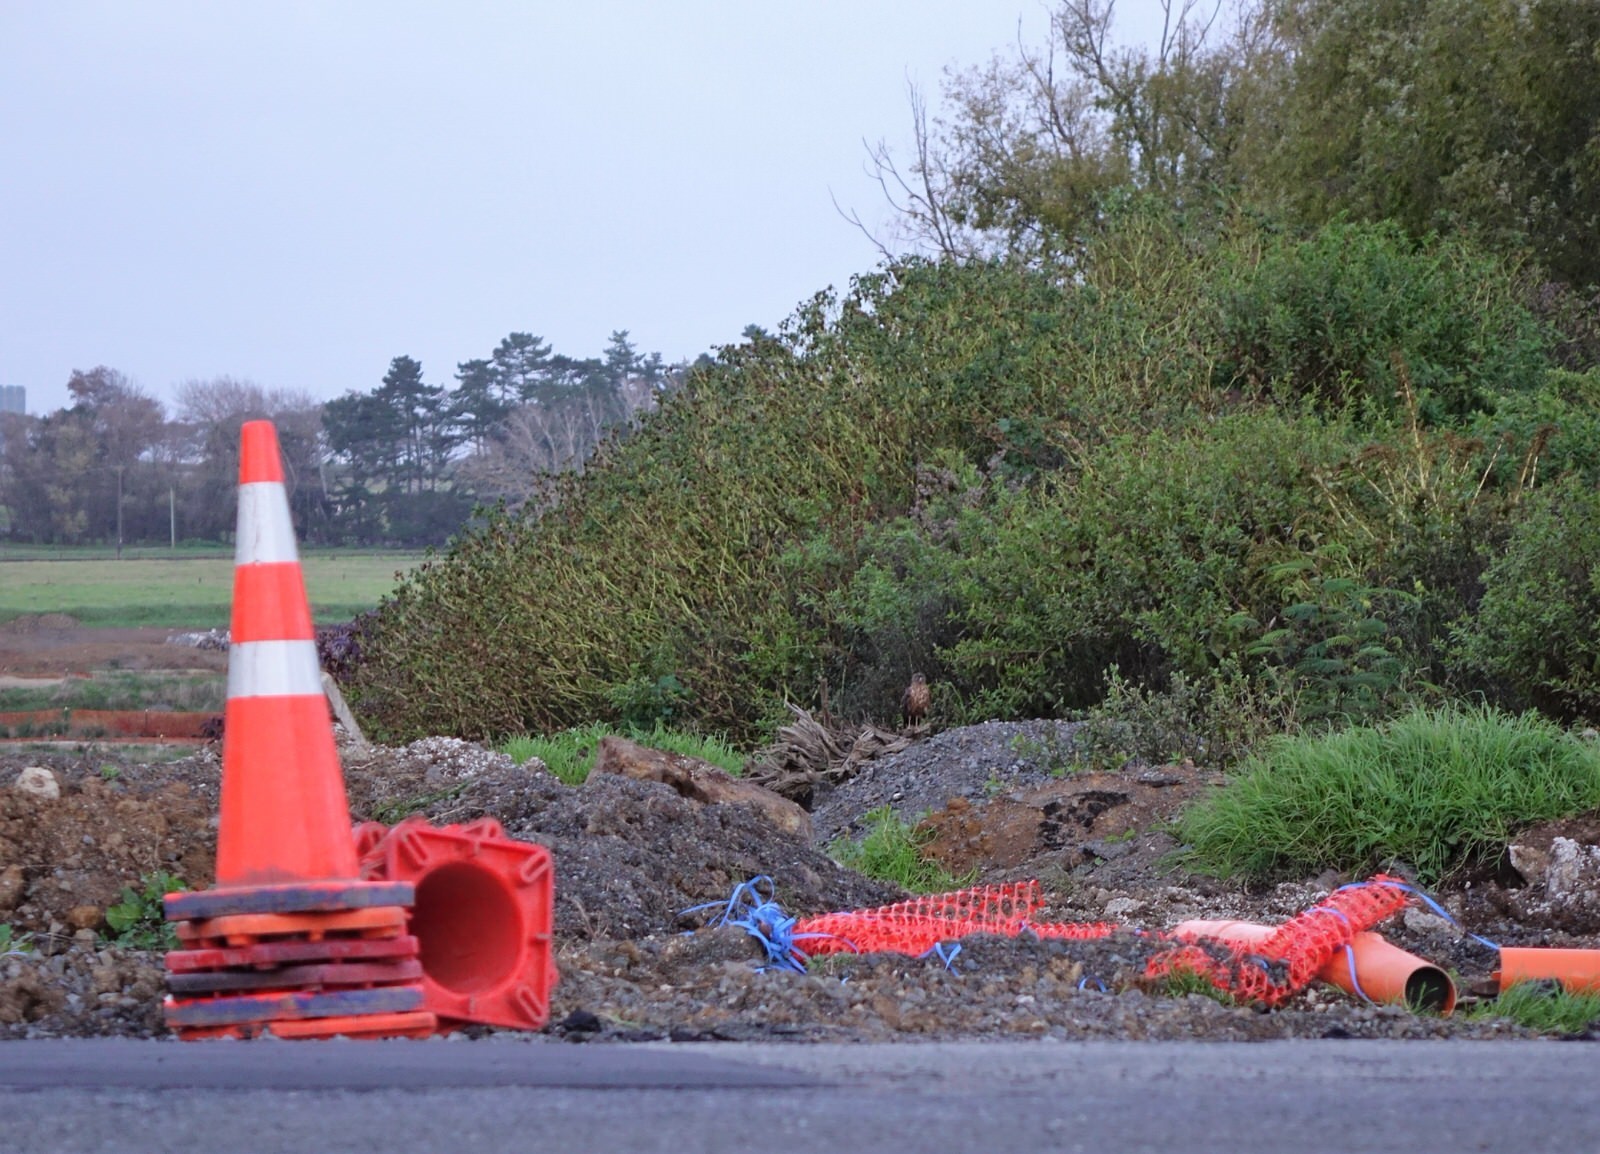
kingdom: Animalia
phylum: Chordata
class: Aves
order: Accipitriformes
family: Accipitridae
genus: Circus
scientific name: Circus approximans
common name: Swamp harrier
